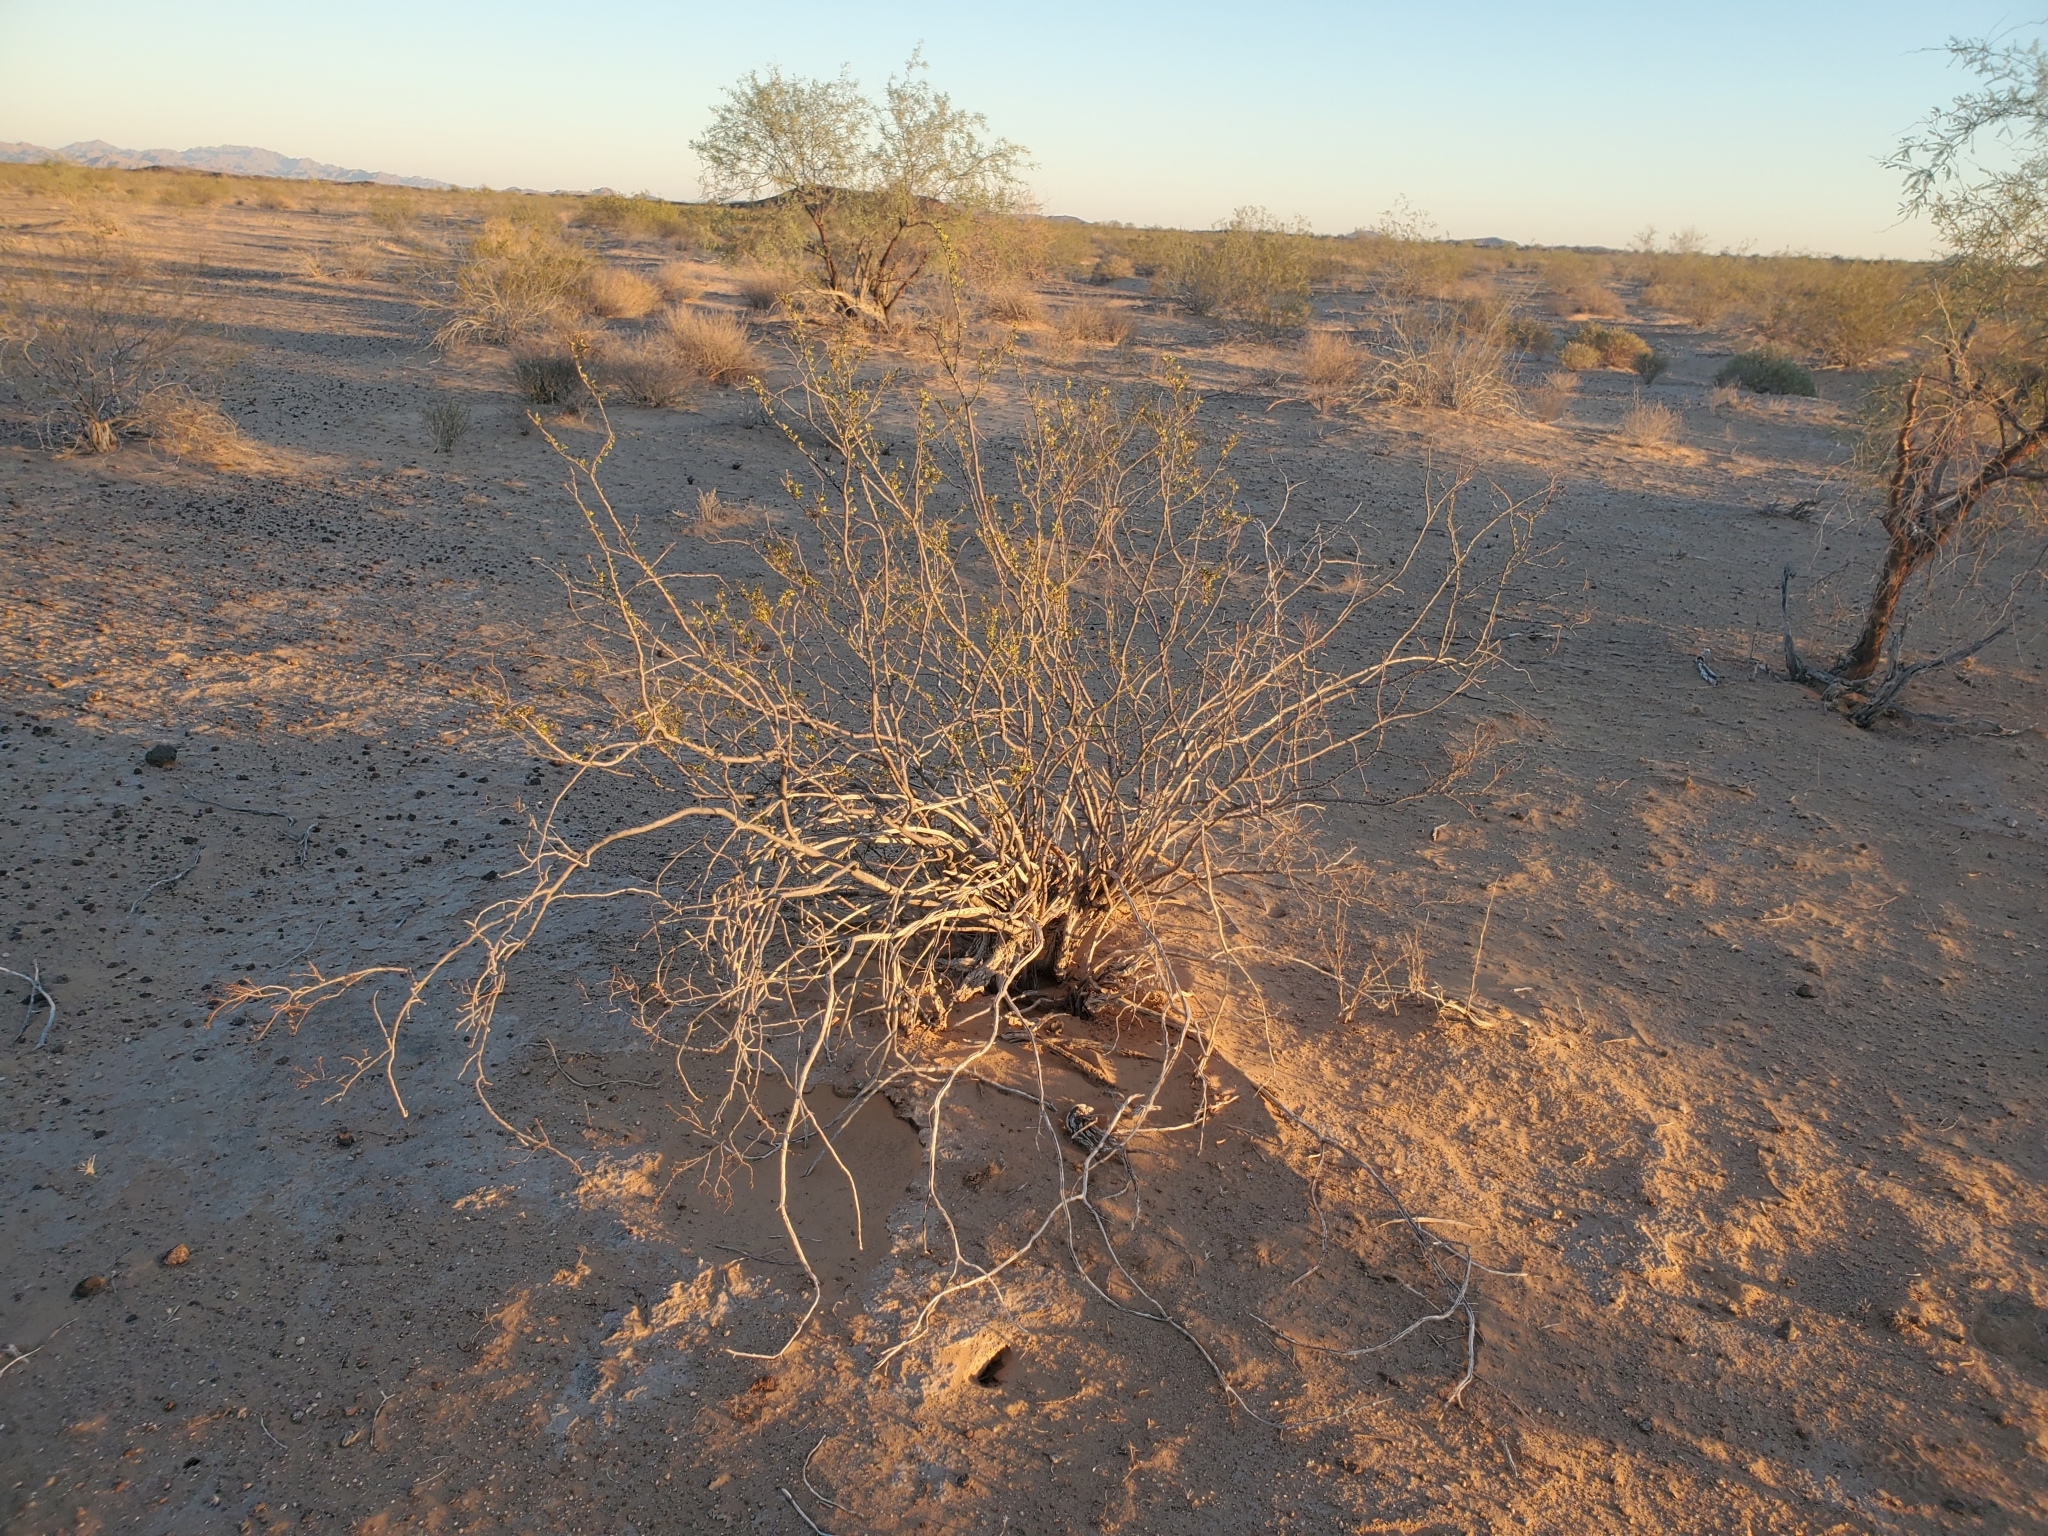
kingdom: Plantae
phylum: Tracheophyta
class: Magnoliopsida
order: Zygophyllales
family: Zygophyllaceae
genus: Larrea
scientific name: Larrea tridentata
